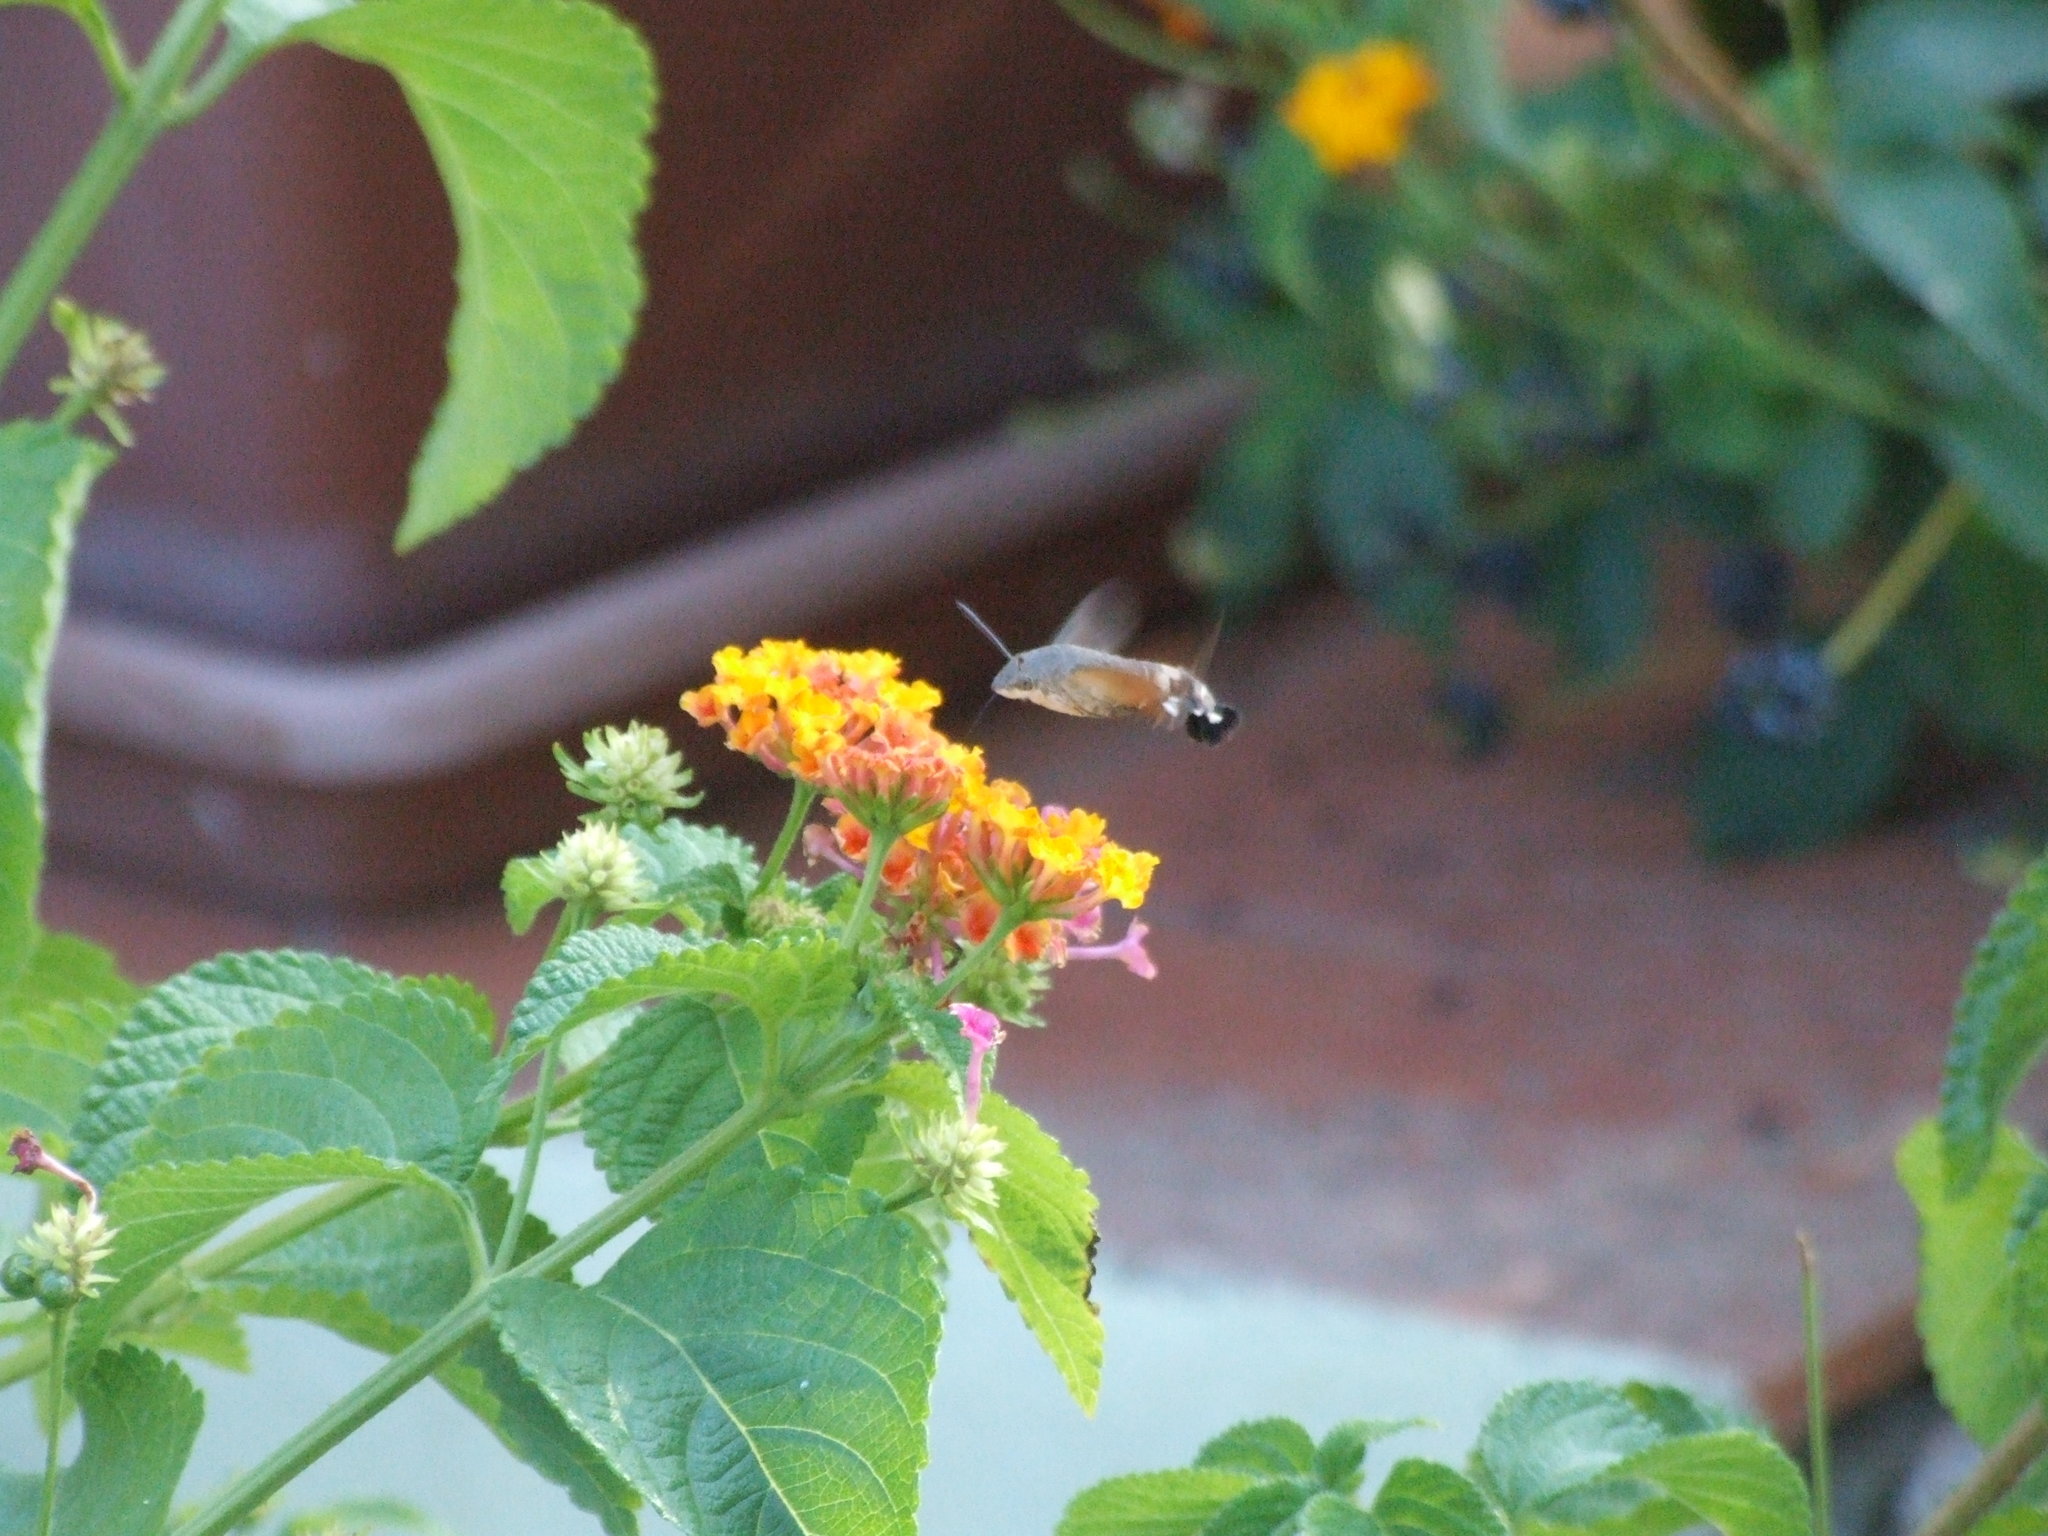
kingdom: Animalia
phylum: Arthropoda
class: Insecta
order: Lepidoptera
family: Sphingidae
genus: Macroglossum
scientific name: Macroglossum stellatarum
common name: Humming-bird hawk-moth
